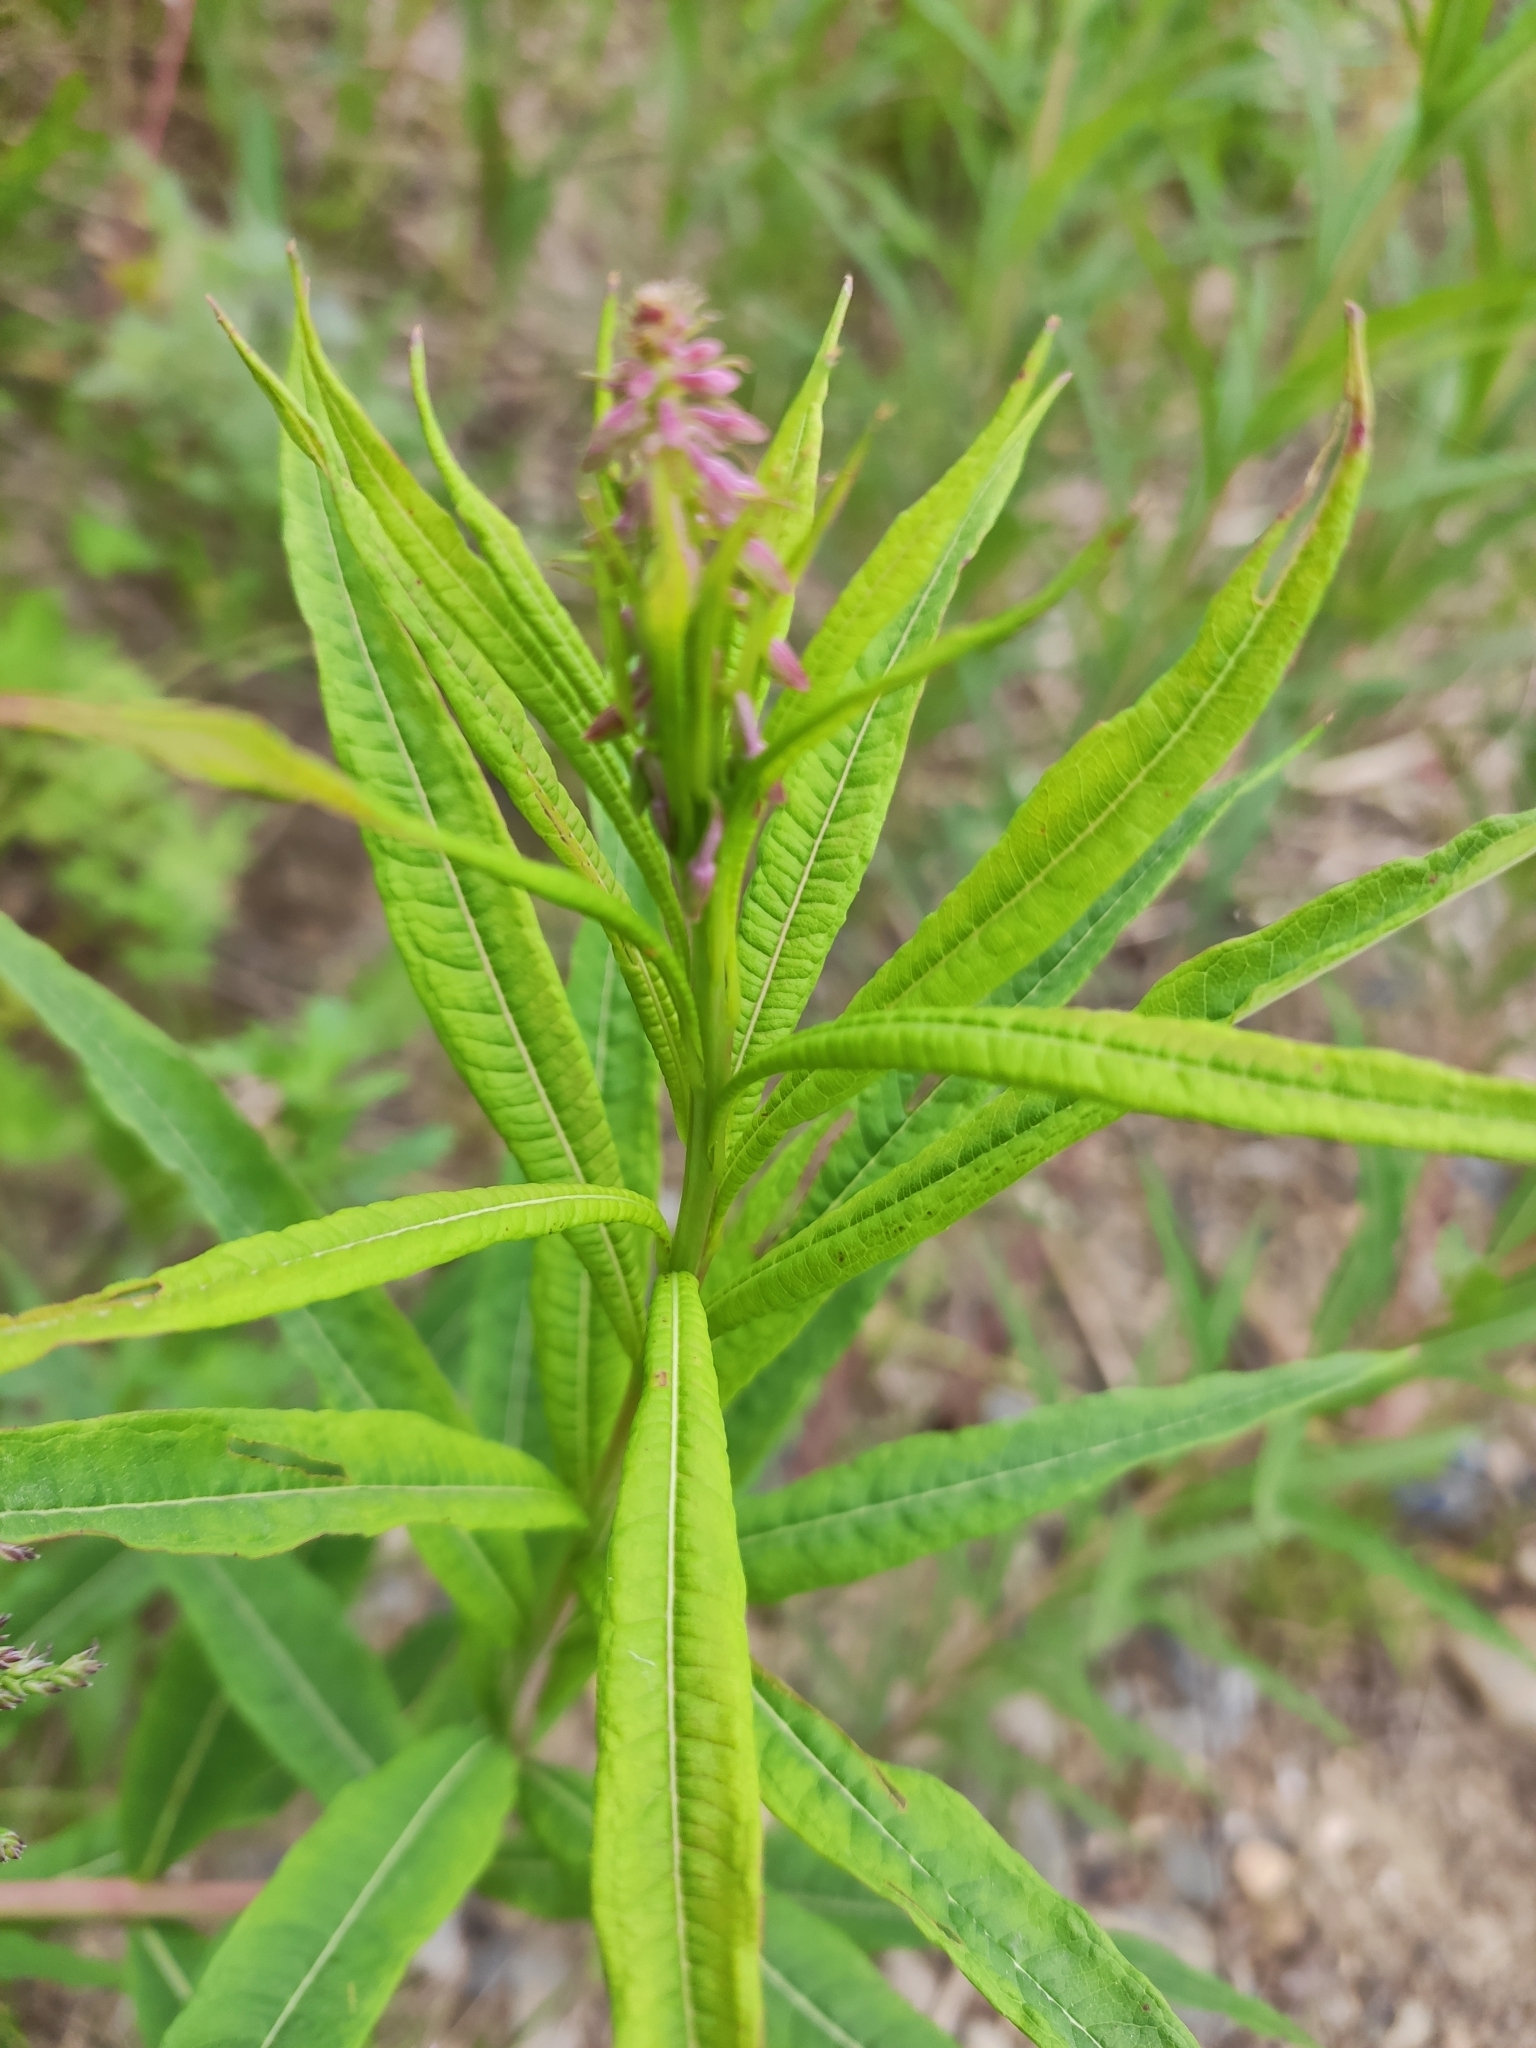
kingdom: Plantae
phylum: Tracheophyta
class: Magnoliopsida
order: Myrtales
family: Onagraceae
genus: Chamaenerion
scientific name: Chamaenerion angustifolium
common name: Fireweed
